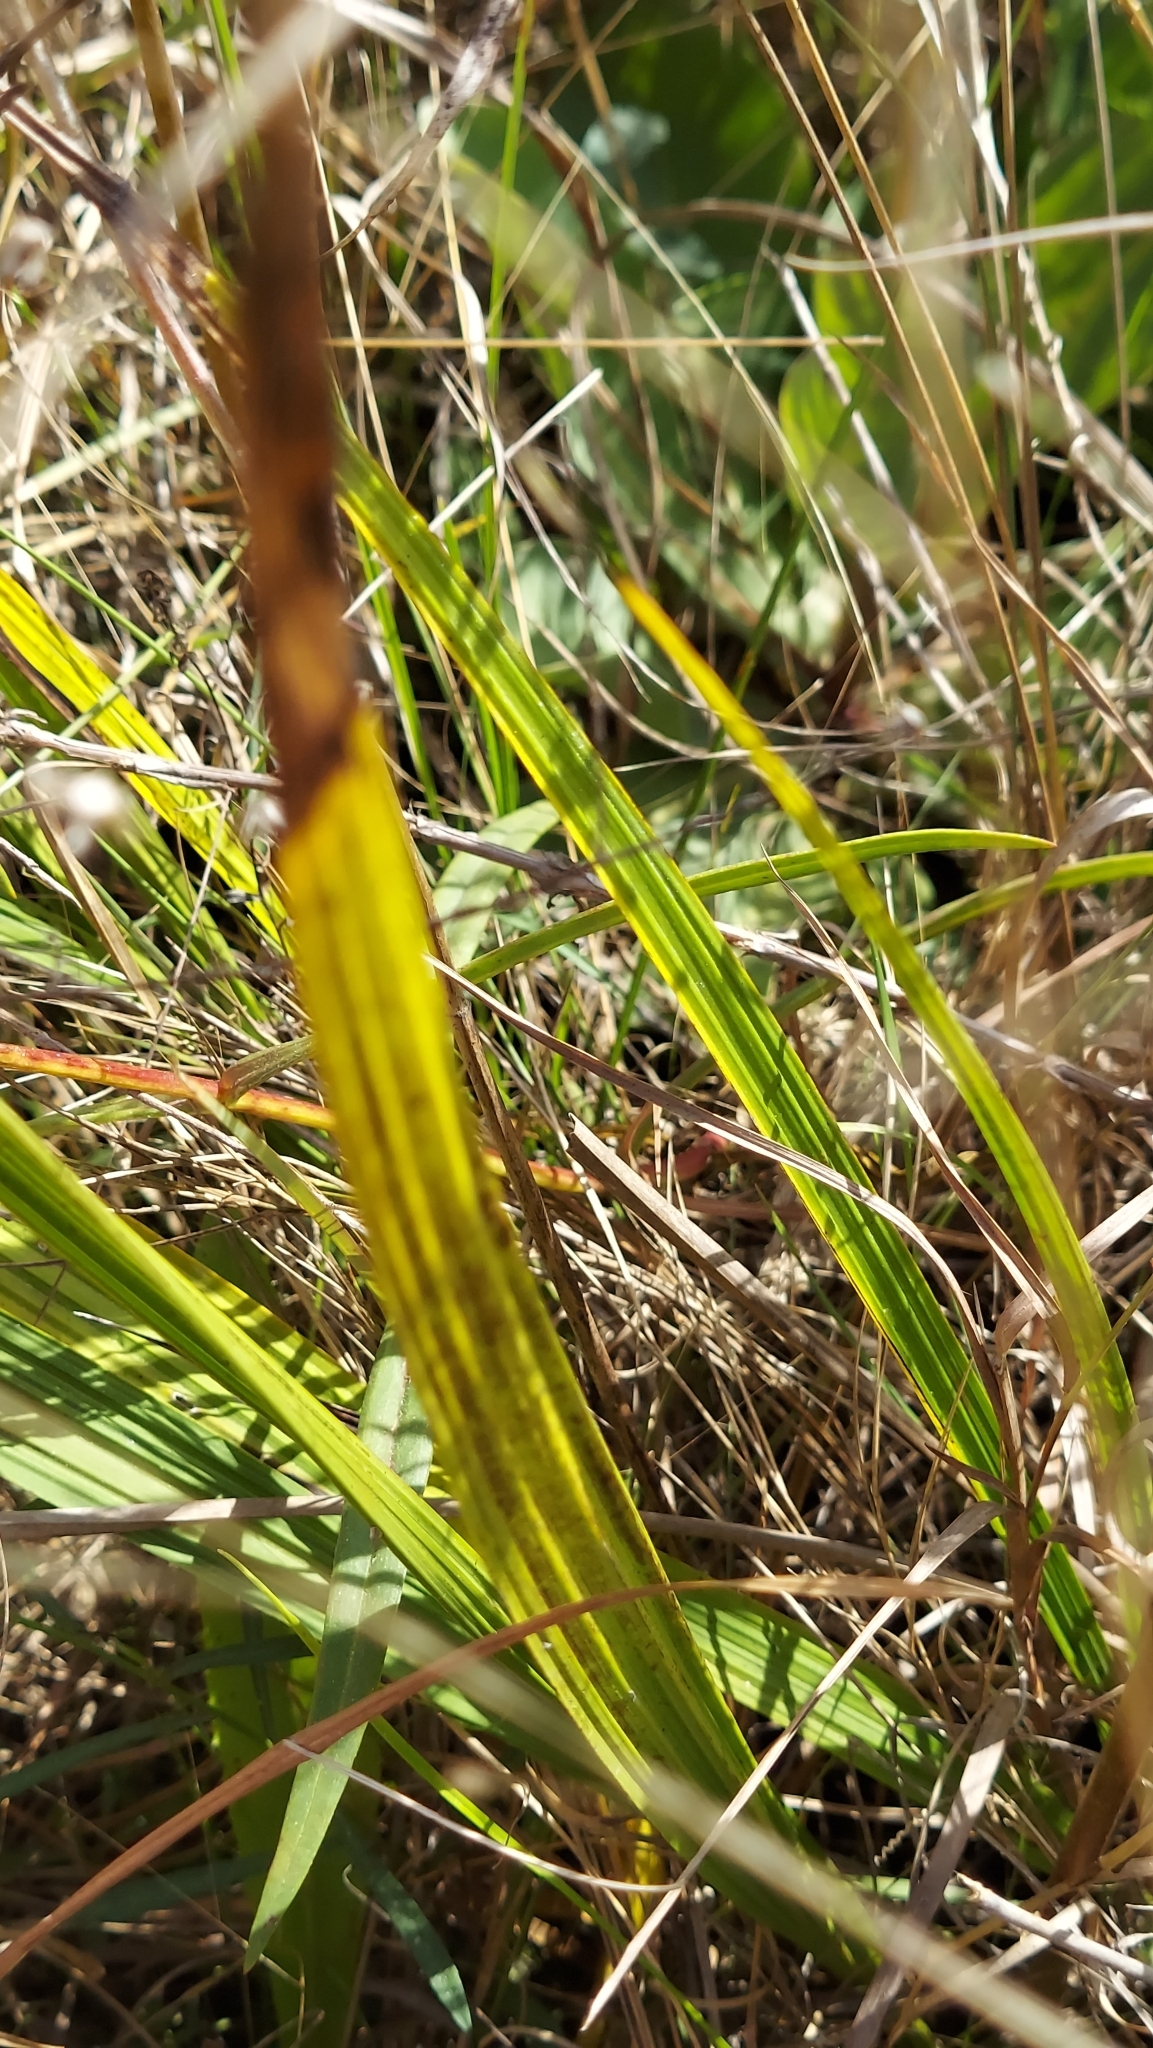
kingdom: Plantae
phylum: Tracheophyta
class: Liliopsida
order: Asparagales
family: Orchidaceae
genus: Bletia
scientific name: Bletia purpurea
